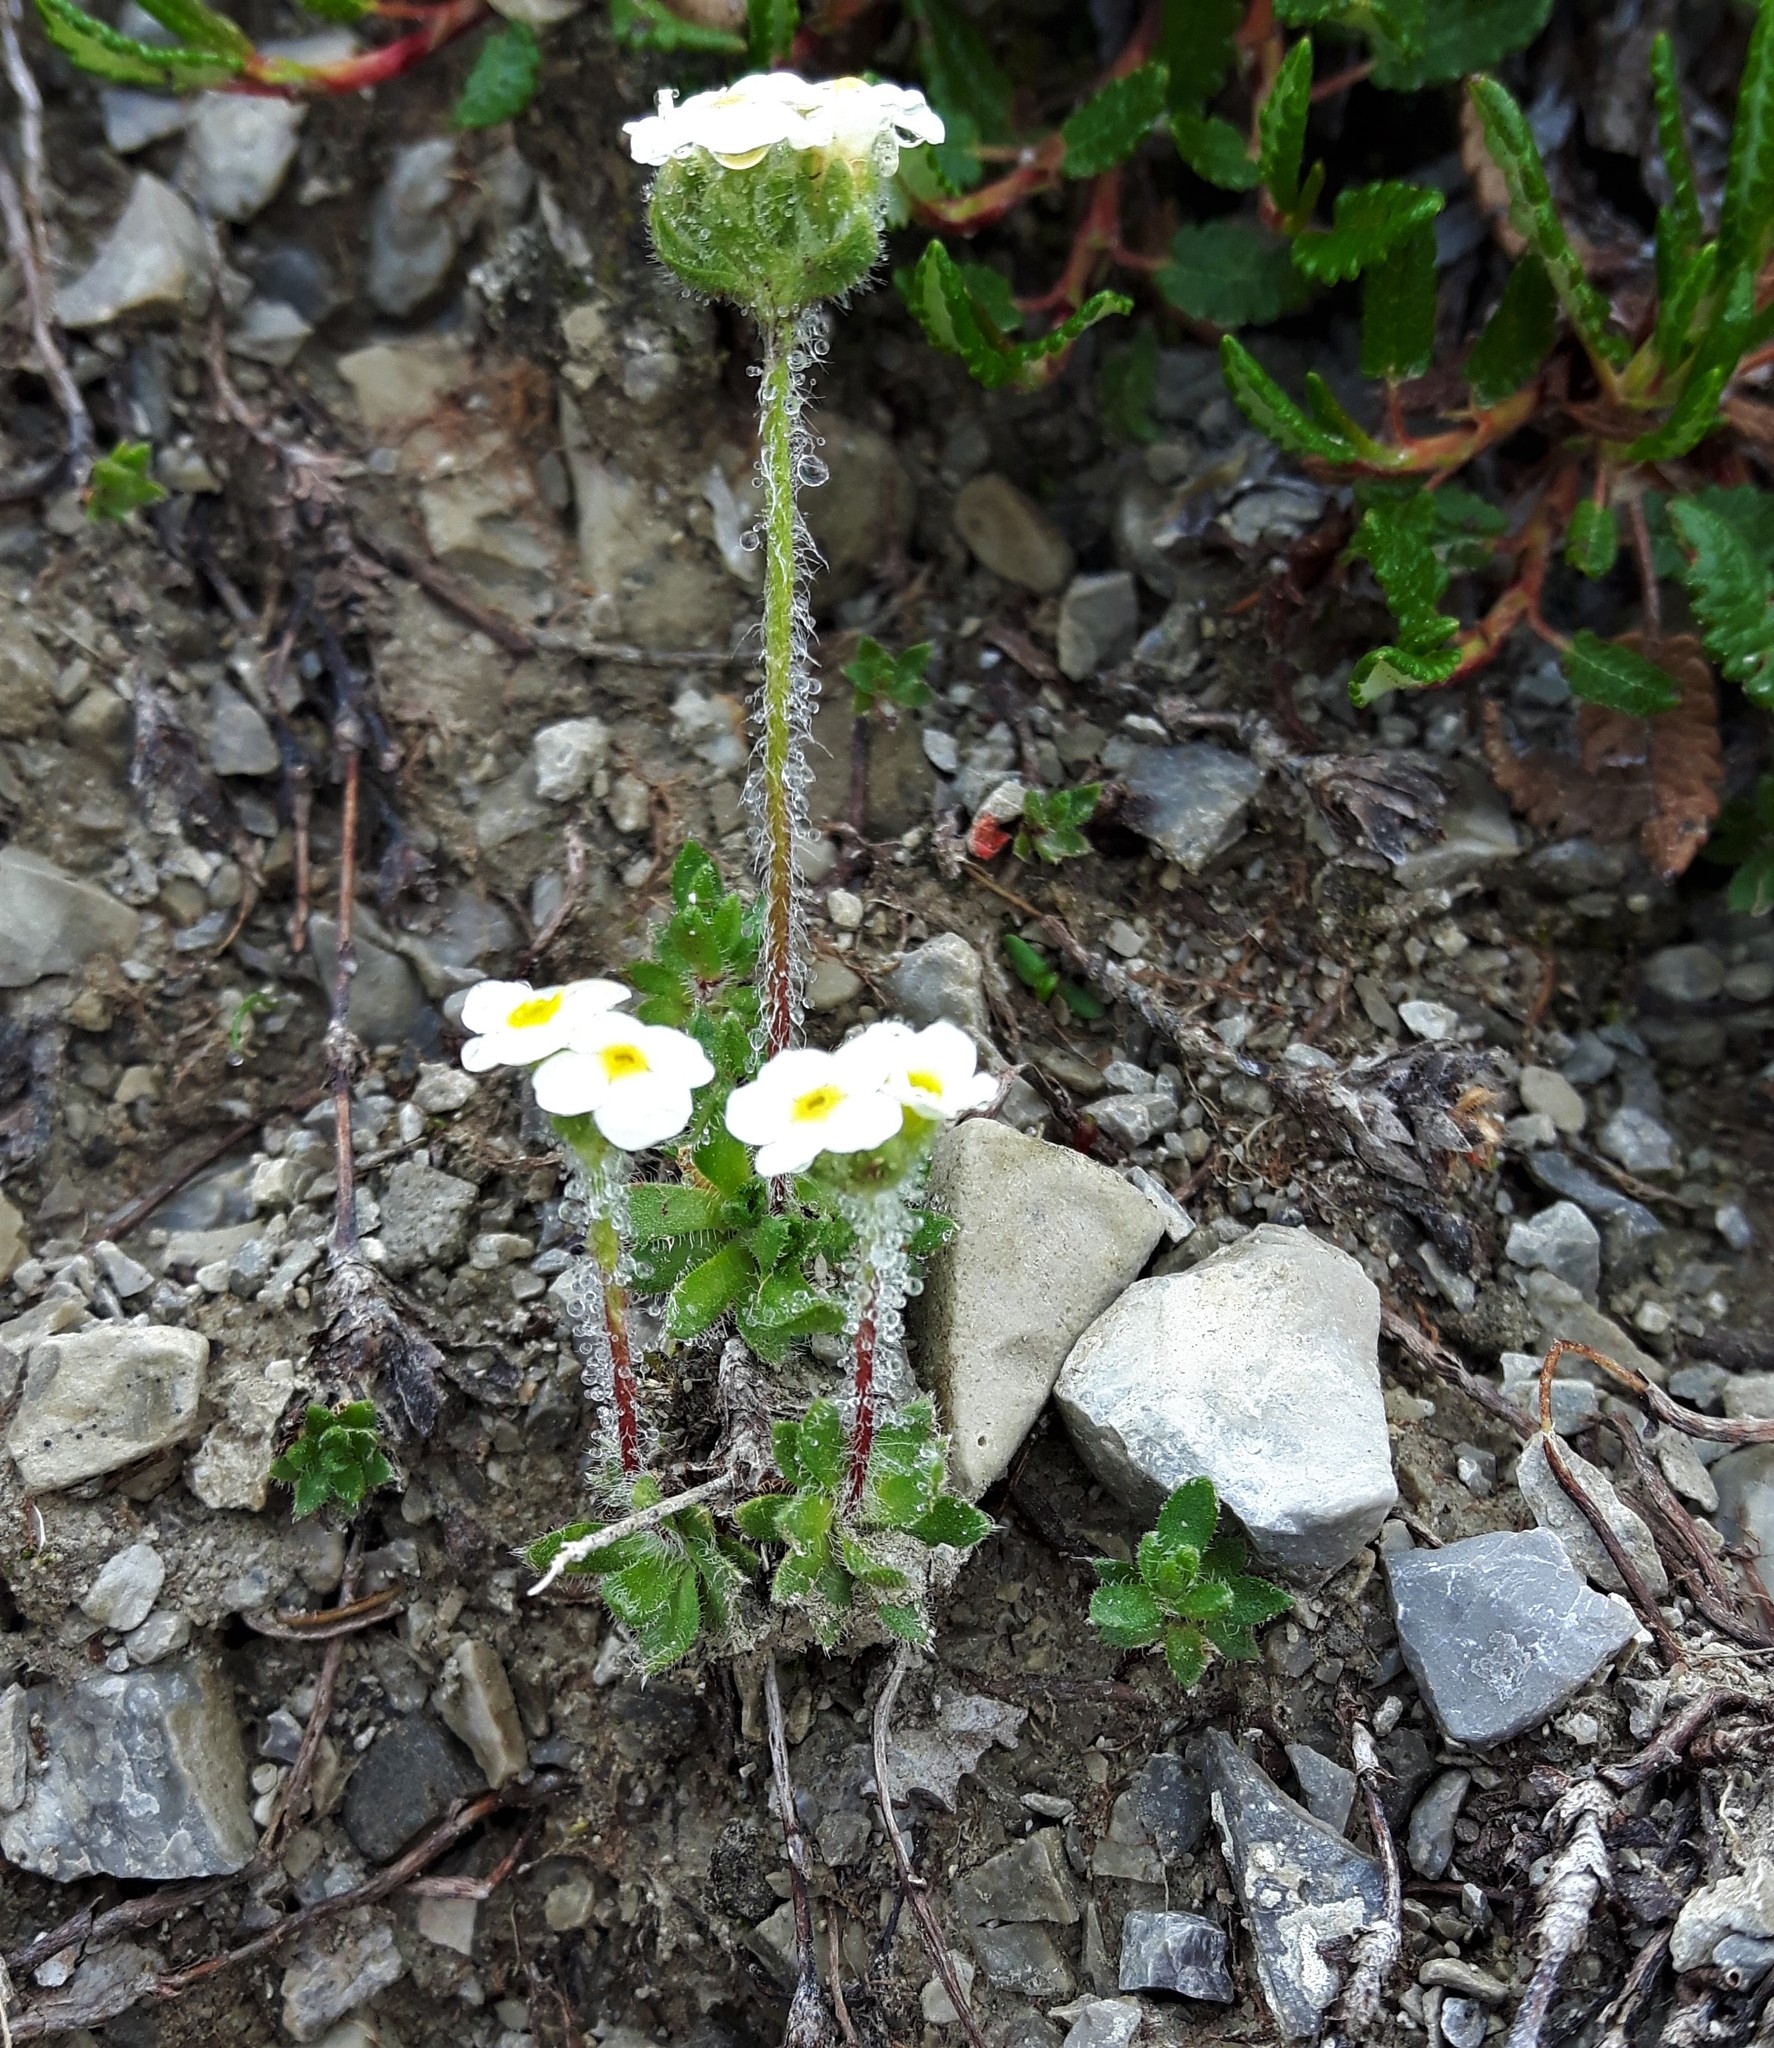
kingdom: Plantae
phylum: Tracheophyta
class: Magnoliopsida
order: Ericales
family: Primulaceae
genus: Androsace
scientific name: Androsace chamaejasme
